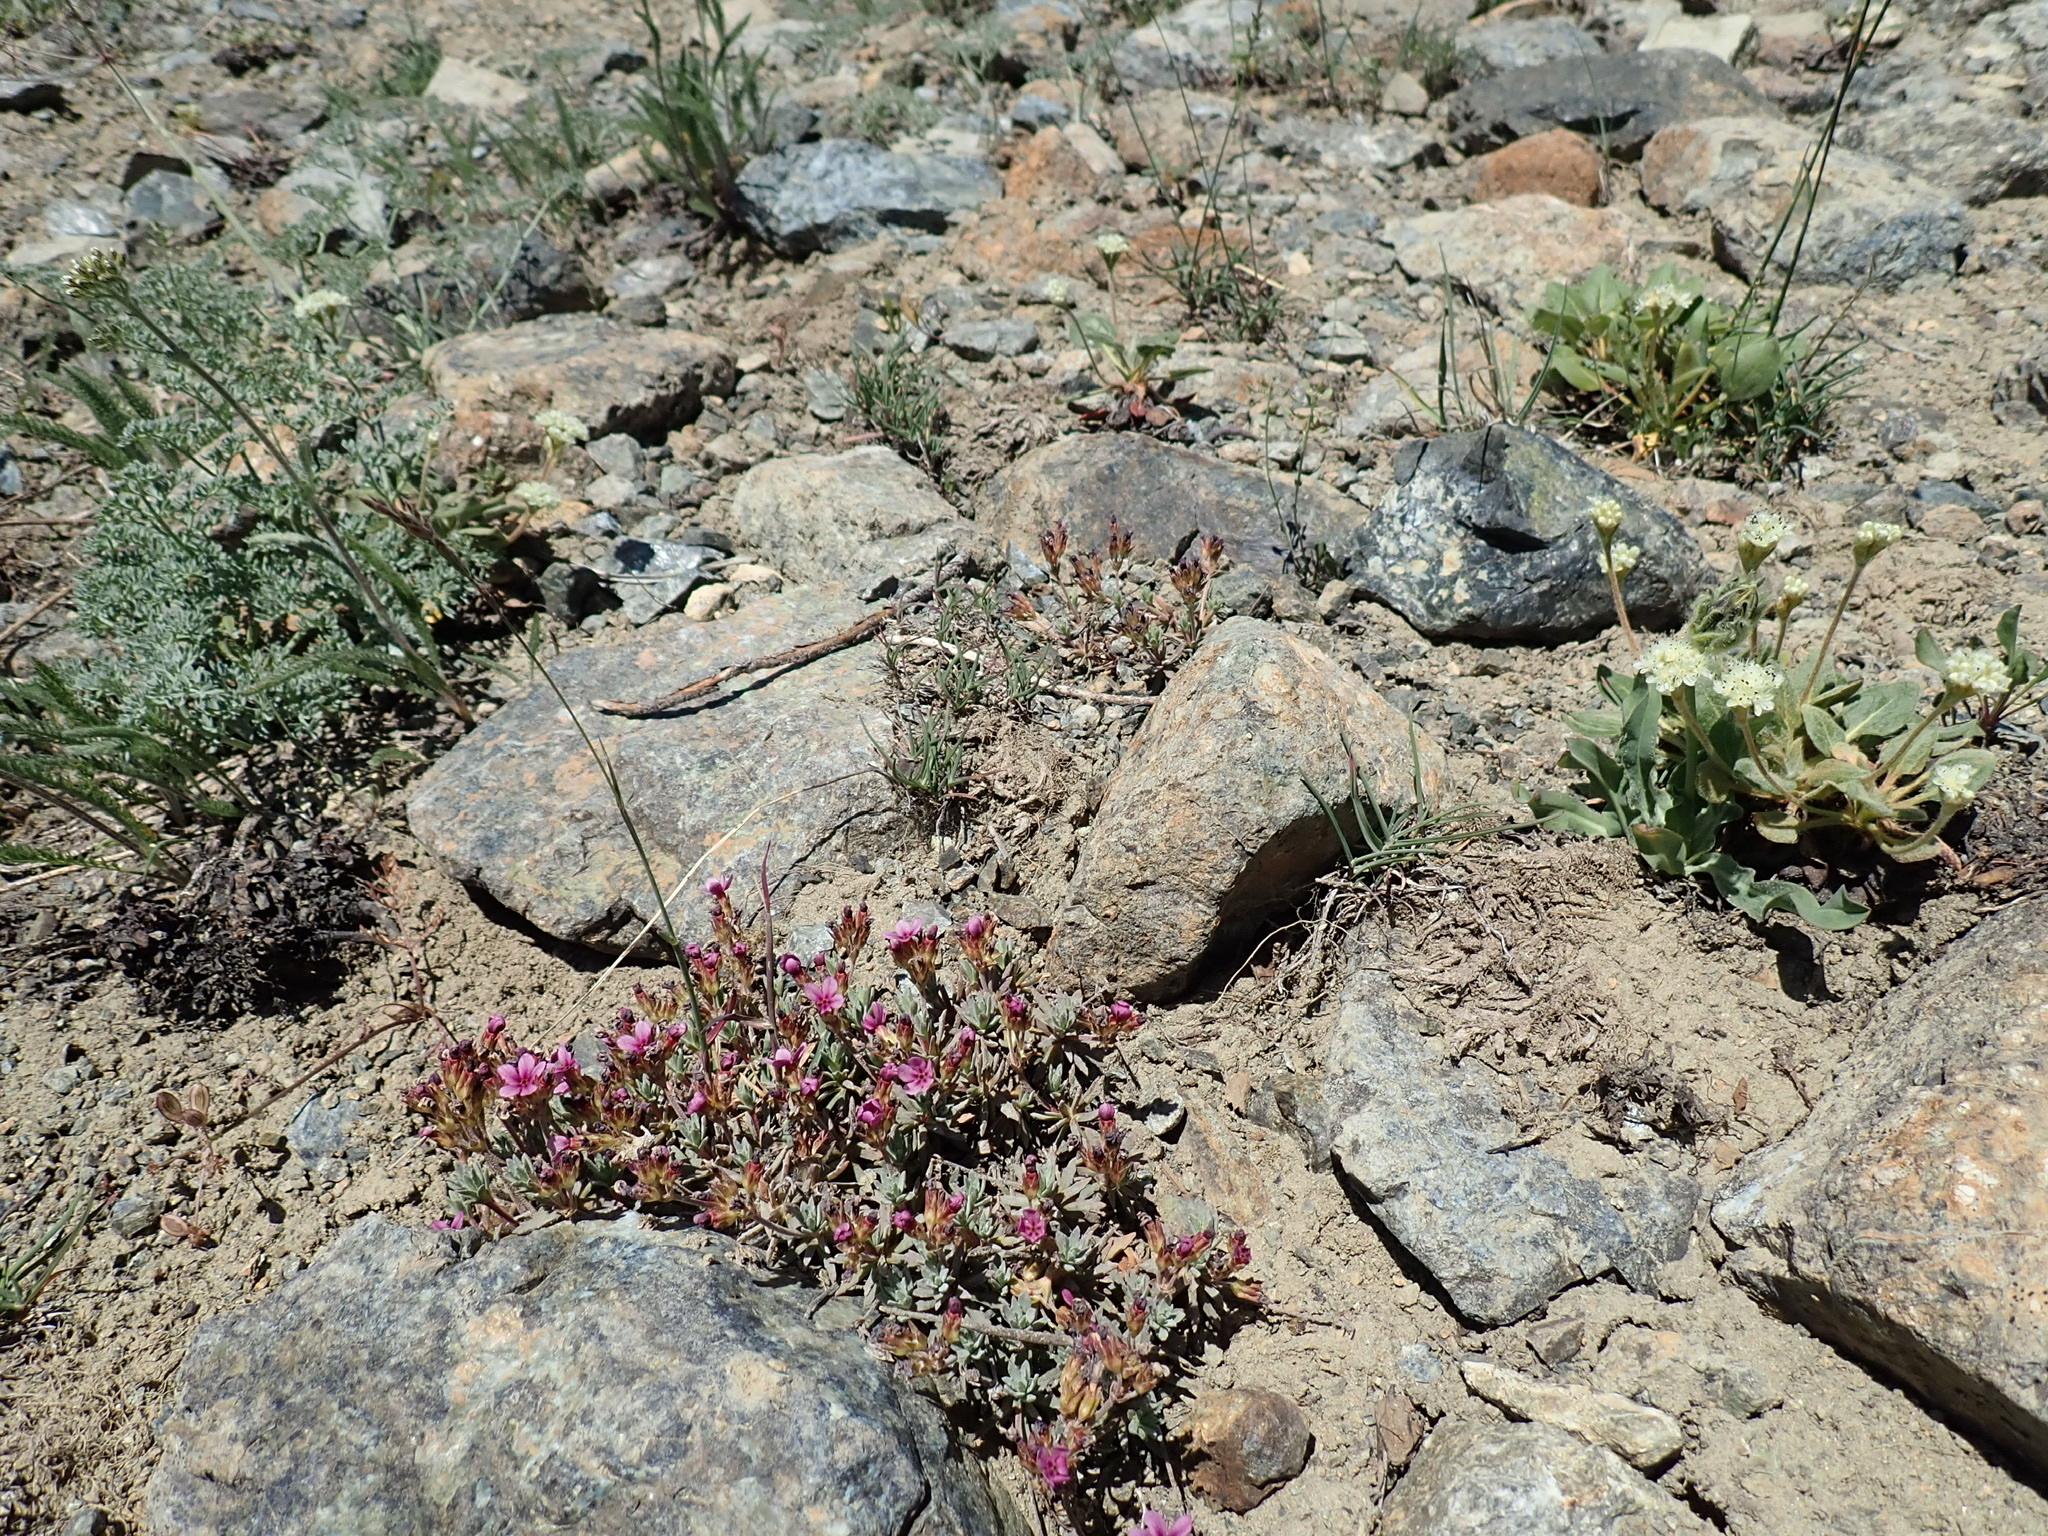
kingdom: Plantae
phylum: Tracheophyta
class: Magnoliopsida
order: Ericales
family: Primulaceae
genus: Androsace
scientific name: Androsace nivalis
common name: Snow dwarf-primrose
